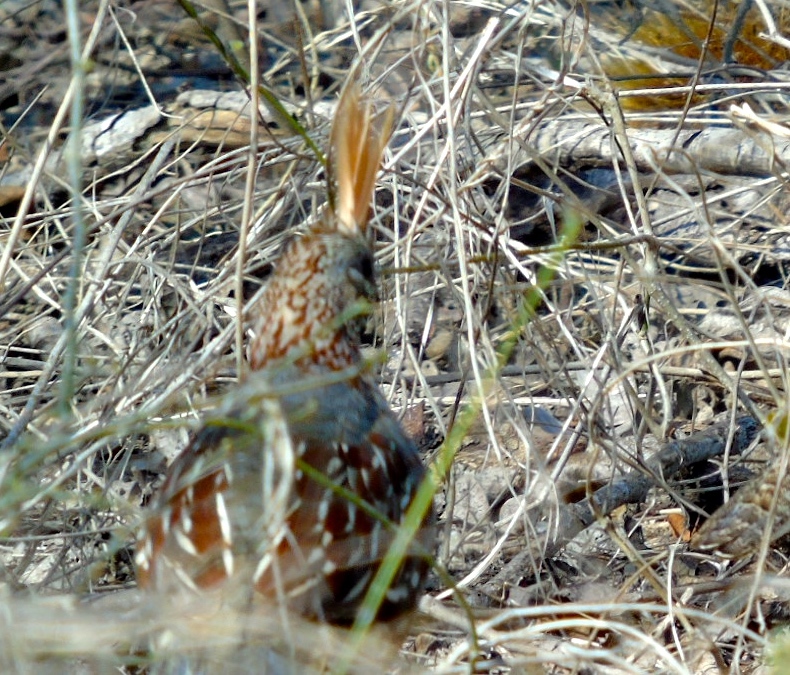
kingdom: Animalia
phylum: Chordata
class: Aves
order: Galliformes
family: Odontophoridae
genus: Callipepla
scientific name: Callipepla douglasii
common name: Elegant quail
